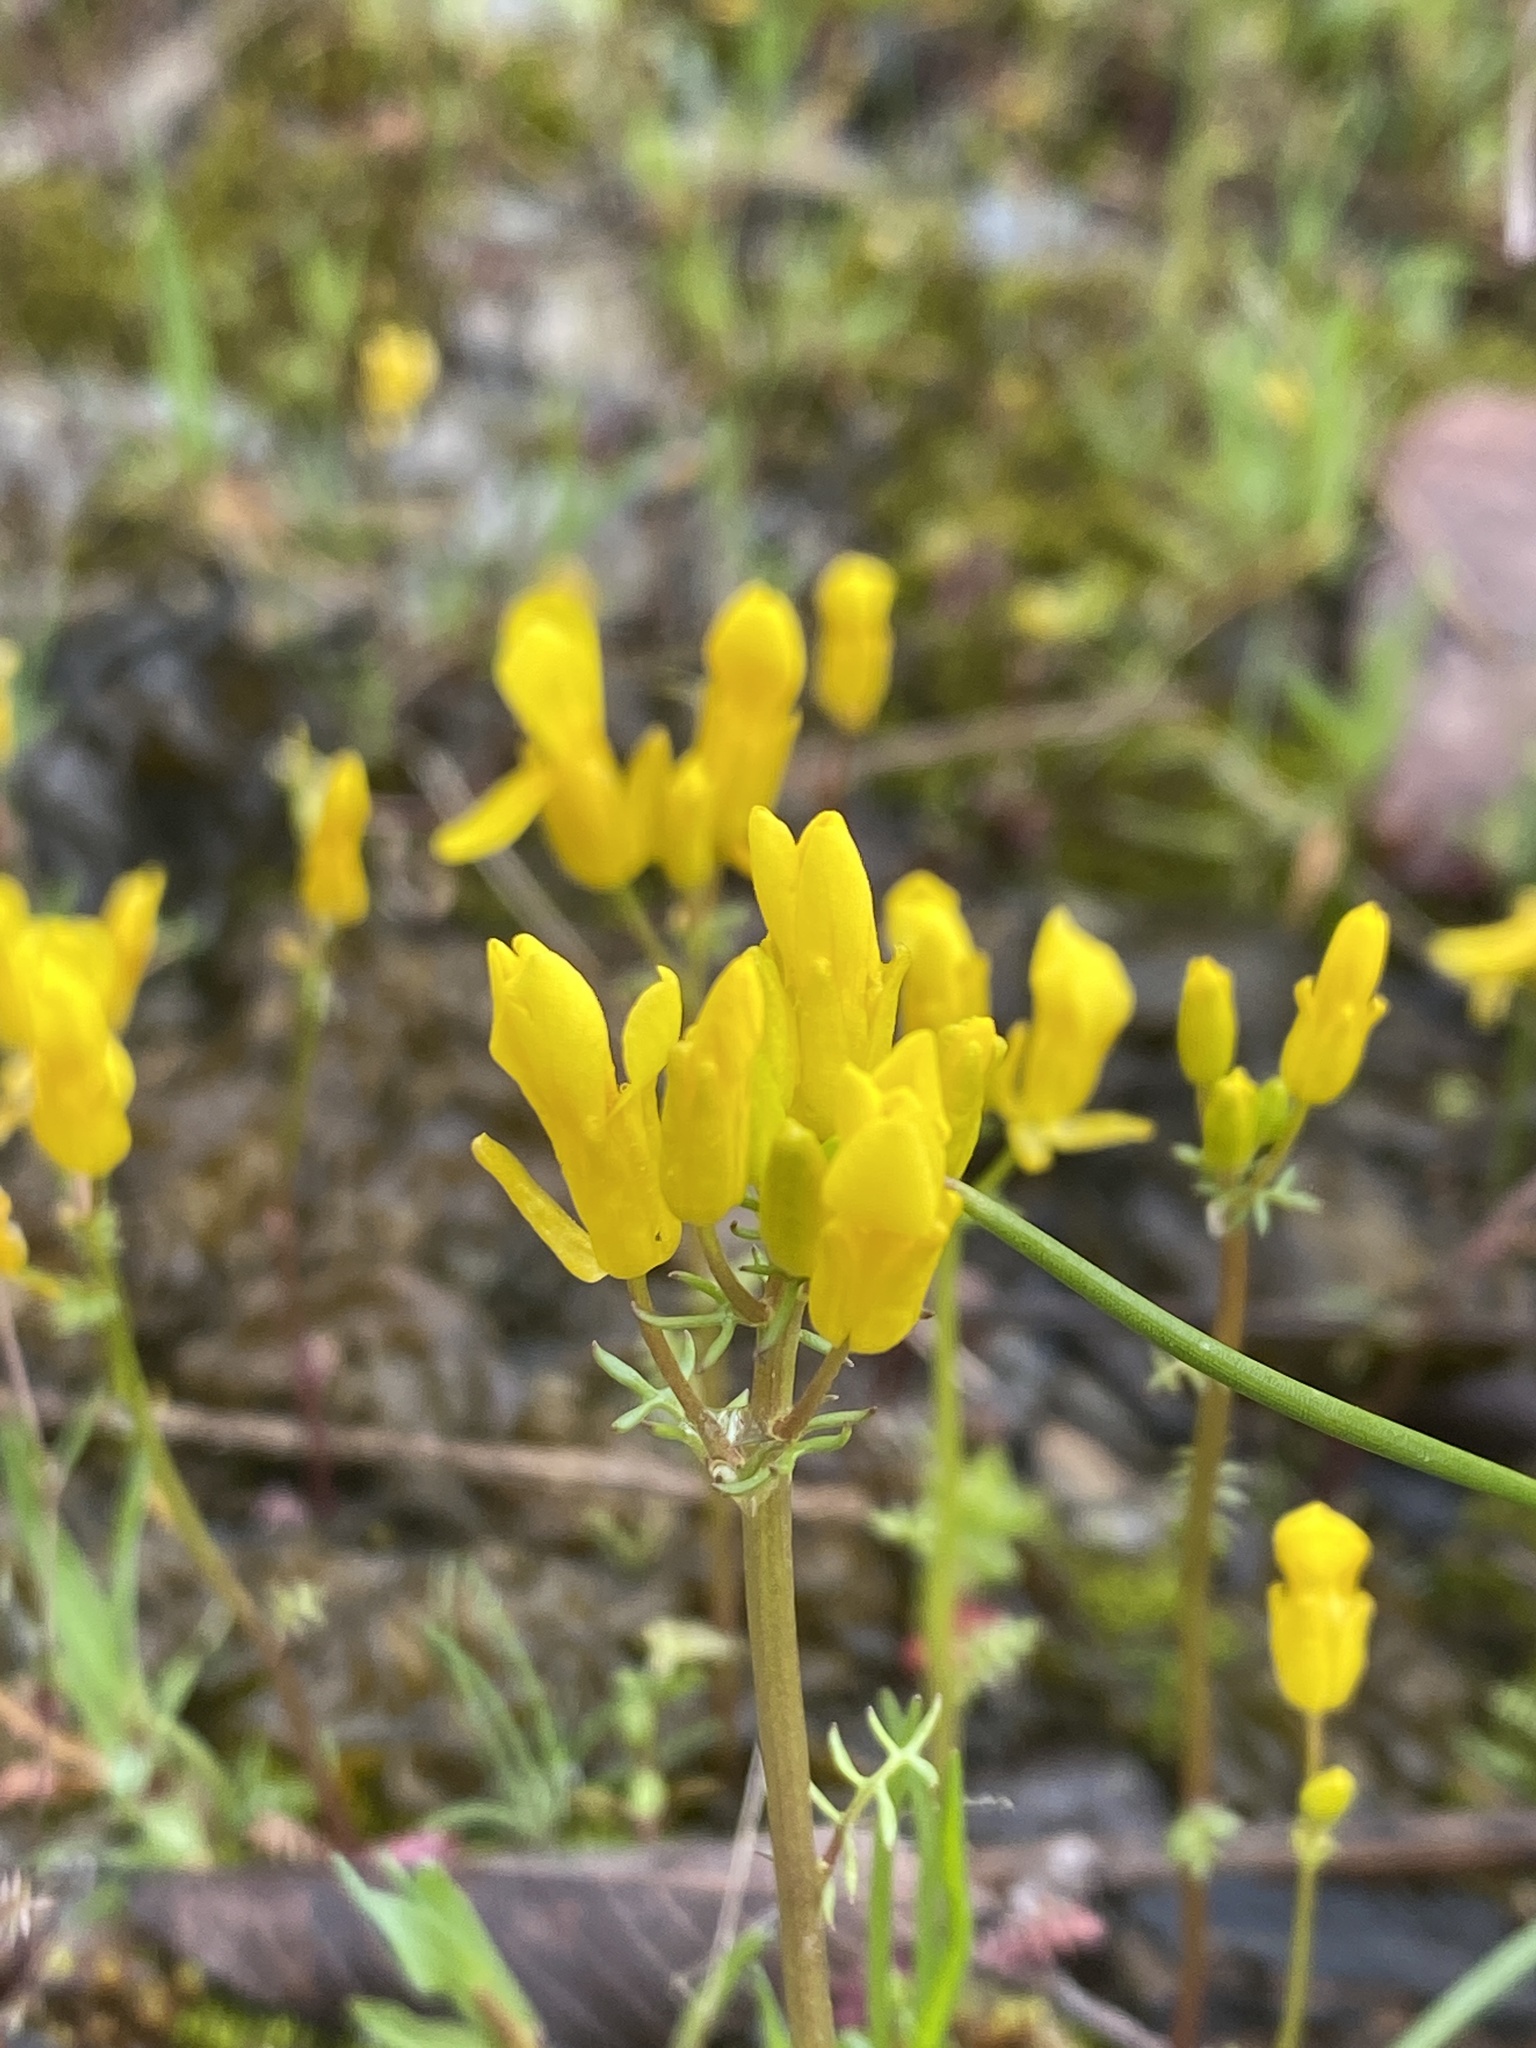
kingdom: Plantae
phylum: Tracheophyta
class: Magnoliopsida
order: Brassicales
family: Brassicaceae
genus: Selenia
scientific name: Selenia aurea
